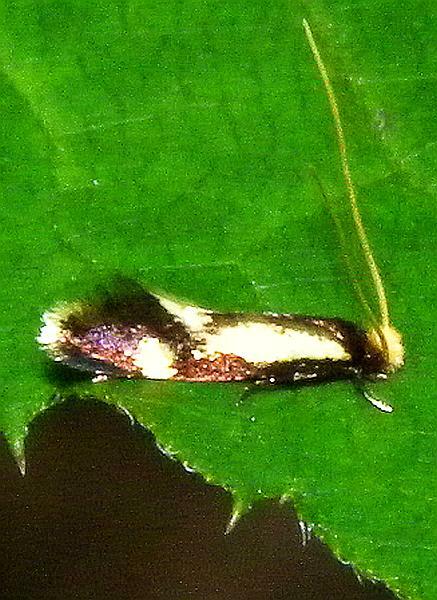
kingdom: Animalia
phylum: Arthropoda
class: Insecta
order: Lepidoptera
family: Meessiidae
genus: Isocorypha
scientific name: Isocorypha mediostriatella
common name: Old gold isocorypha moth
